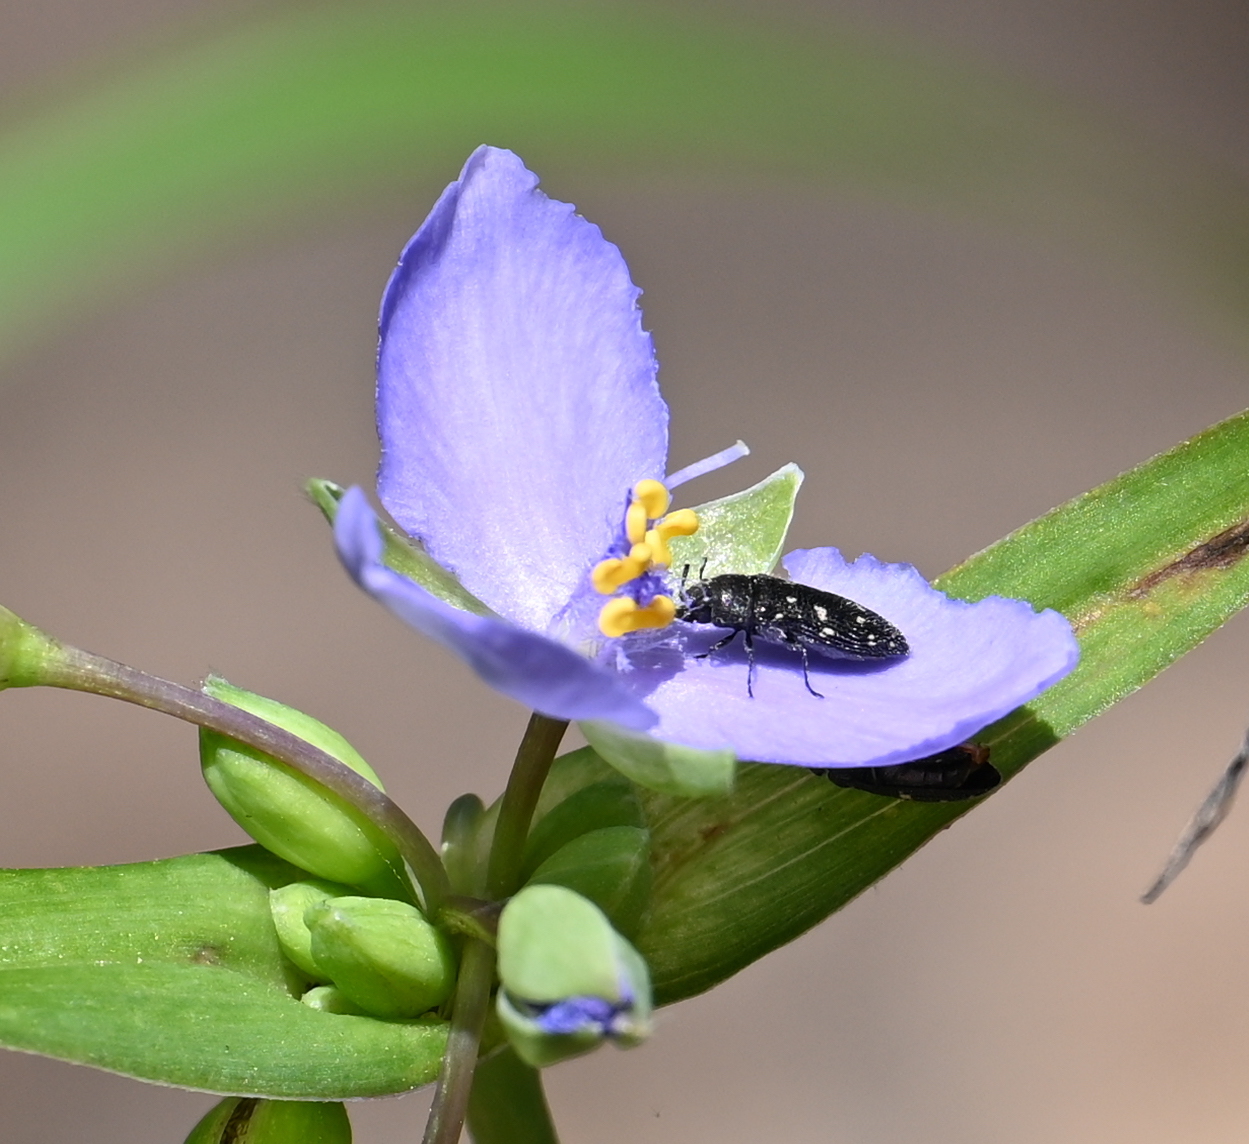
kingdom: Animalia
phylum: Arthropoda
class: Insecta
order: Coleoptera
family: Buprestidae
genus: Acmaeodera
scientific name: Acmaeodera tubulus
